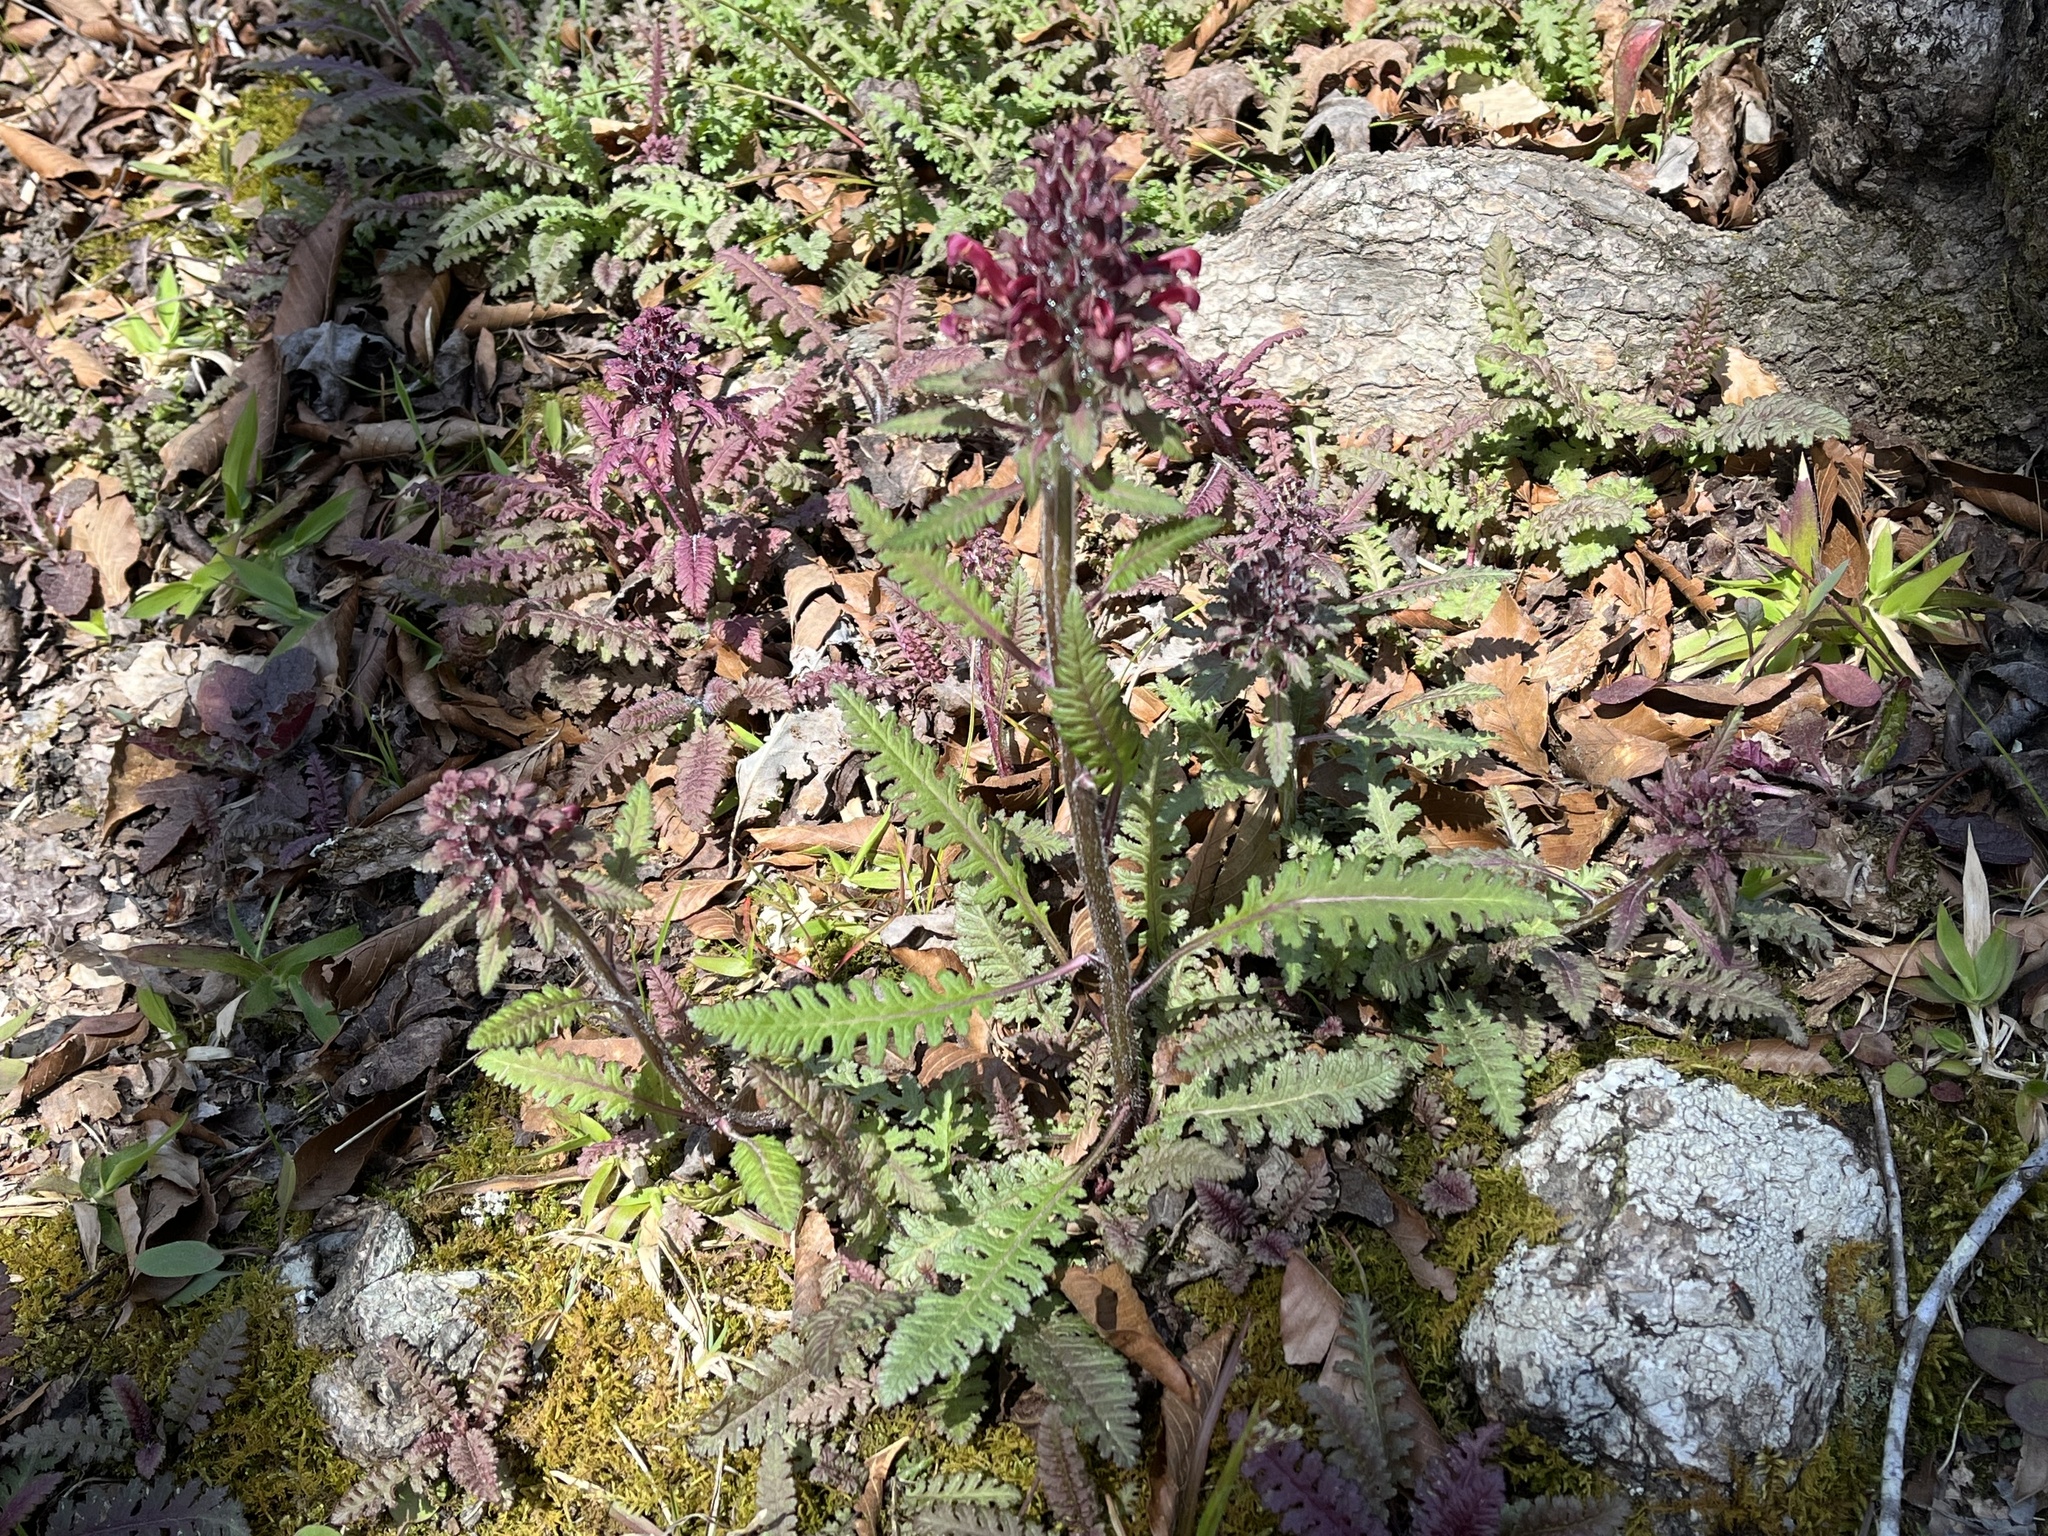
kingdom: Plantae
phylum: Tracheophyta
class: Magnoliopsida
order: Lamiales
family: Orobanchaceae
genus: Pedicularis
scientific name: Pedicularis canadensis
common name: Early lousewort
